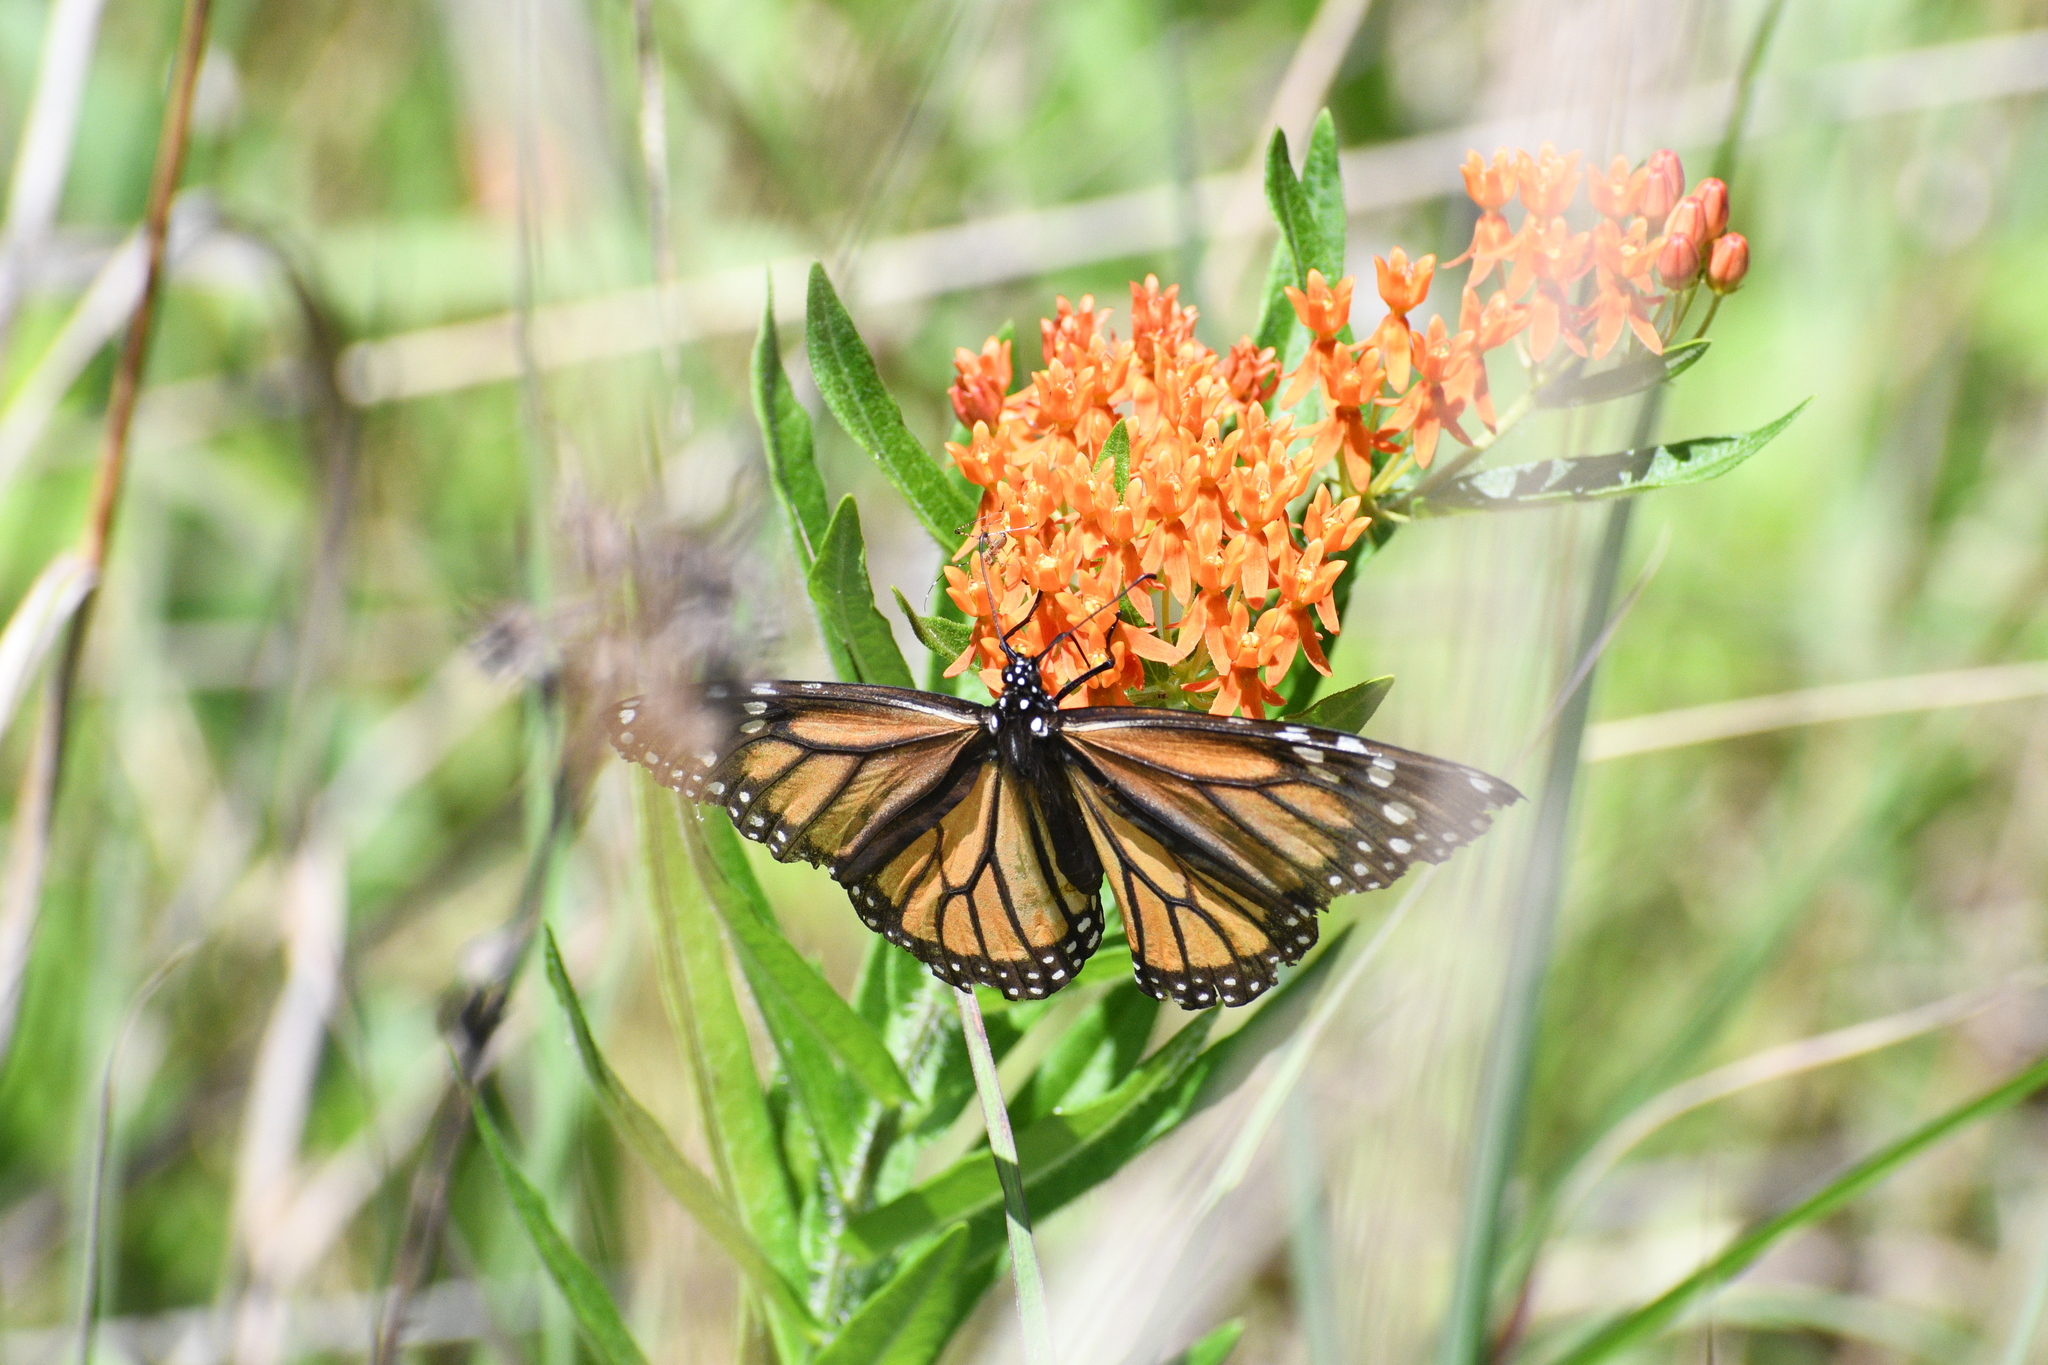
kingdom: Animalia
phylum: Arthropoda
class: Insecta
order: Lepidoptera
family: Nymphalidae
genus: Danaus
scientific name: Danaus plexippus
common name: Monarch
